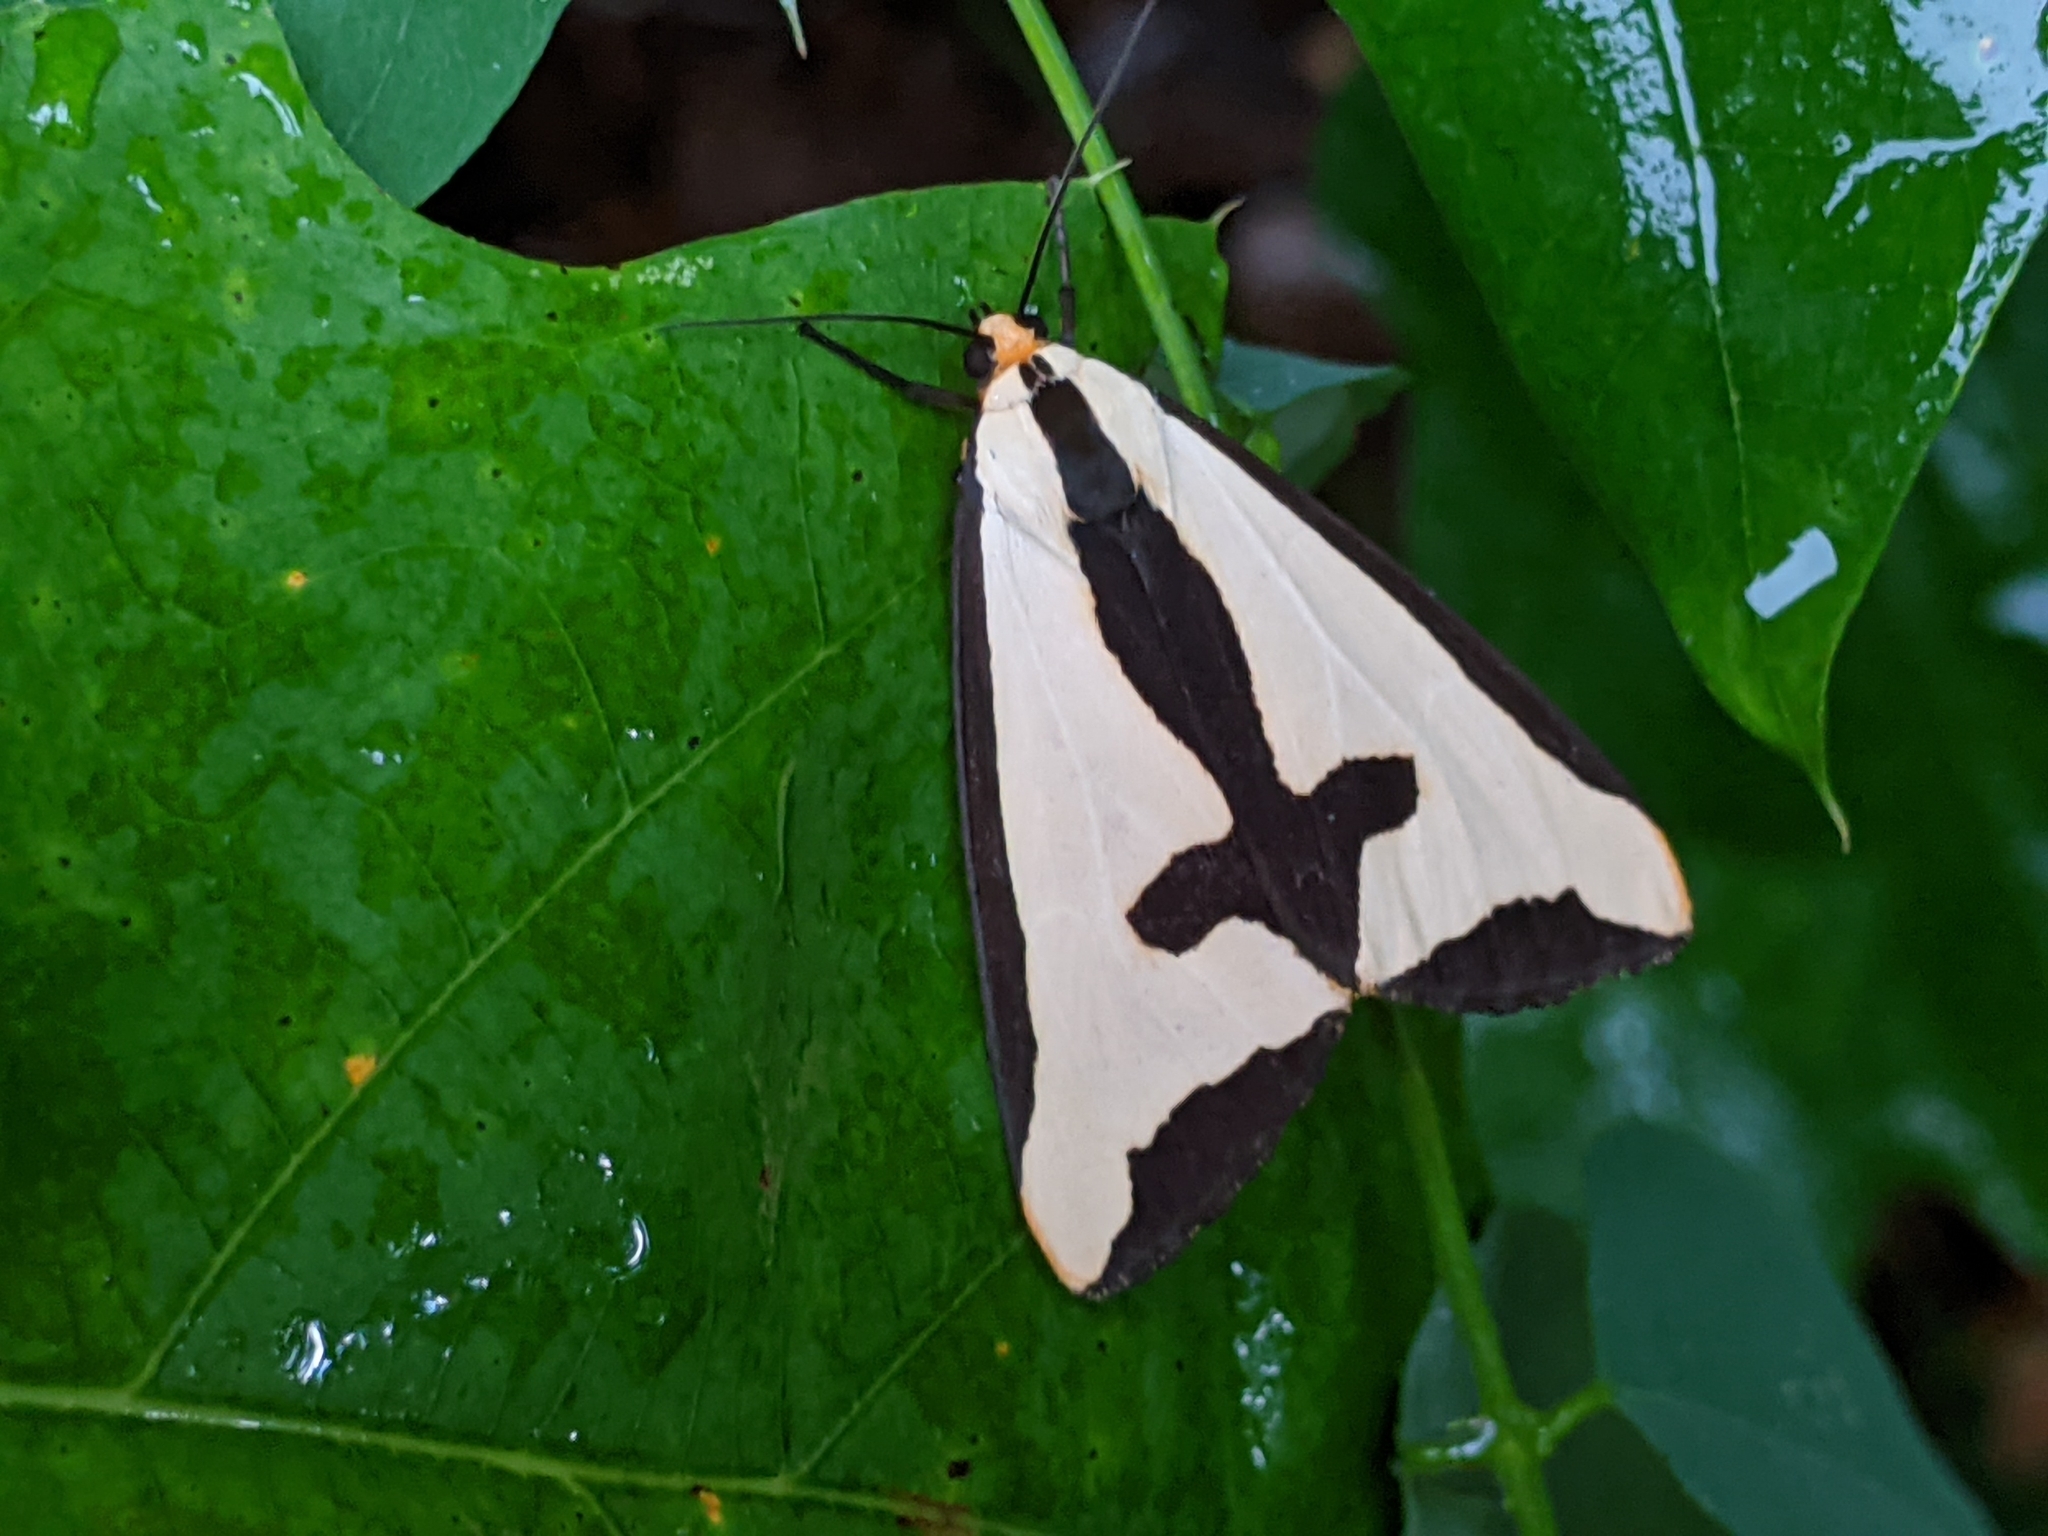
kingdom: Animalia
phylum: Arthropoda
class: Insecta
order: Lepidoptera
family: Erebidae
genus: Haploa
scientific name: Haploa clymene
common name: Clymene moth
